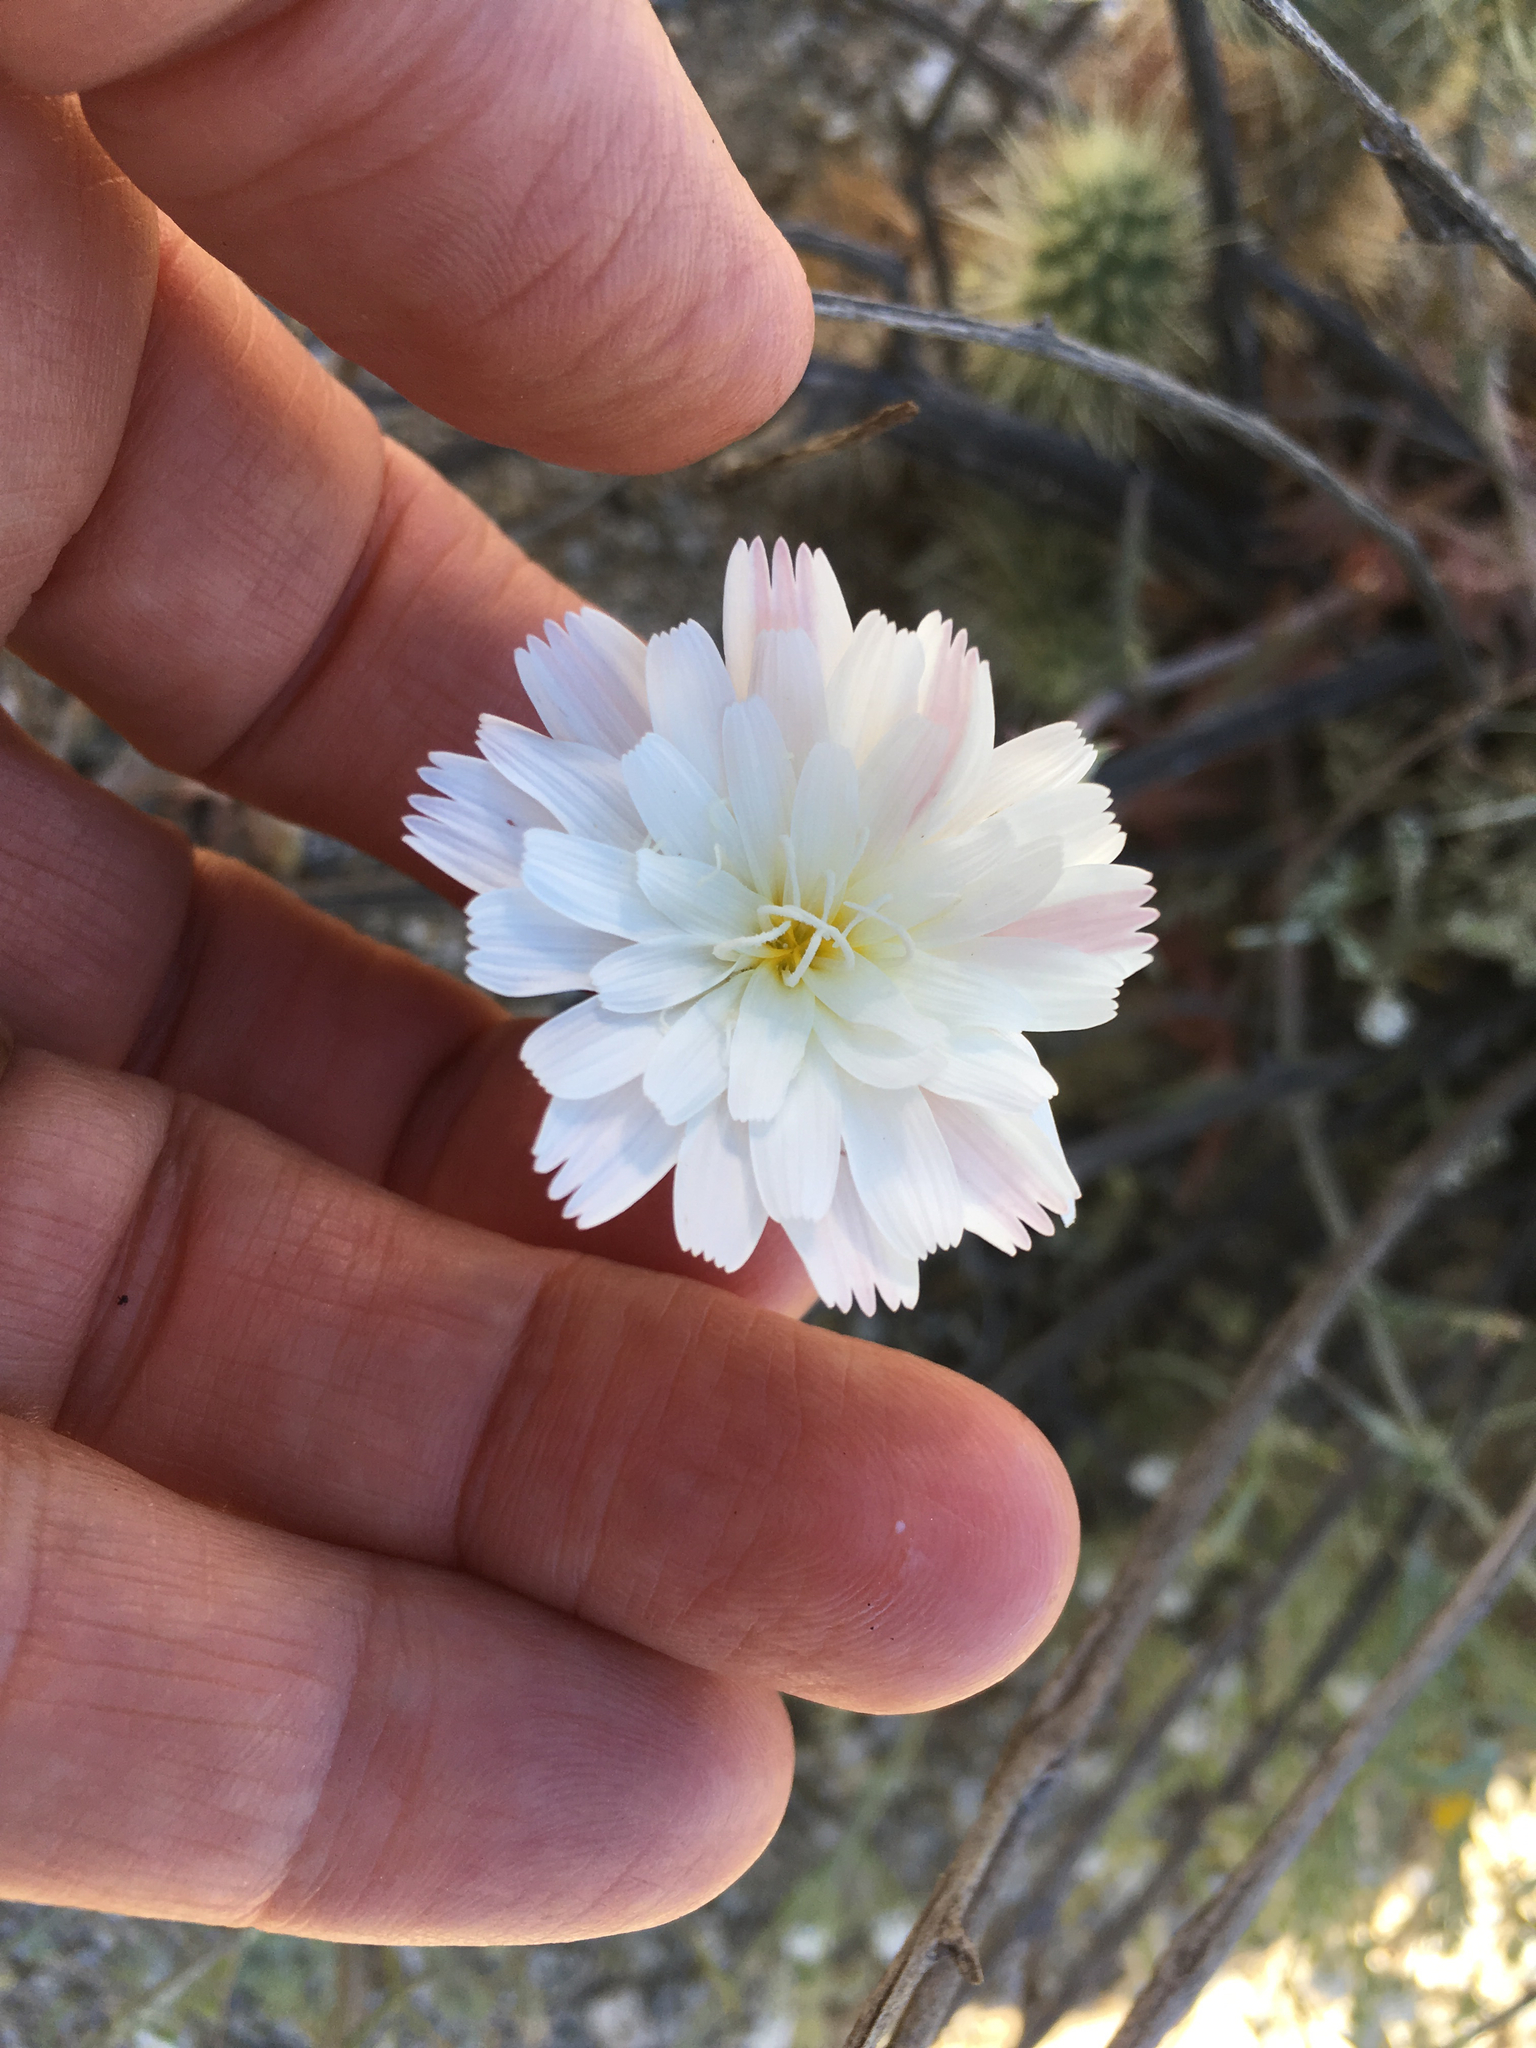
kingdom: Plantae
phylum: Tracheophyta
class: Magnoliopsida
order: Asterales
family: Asteraceae
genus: Rafinesquia
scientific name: Rafinesquia neomexicana
